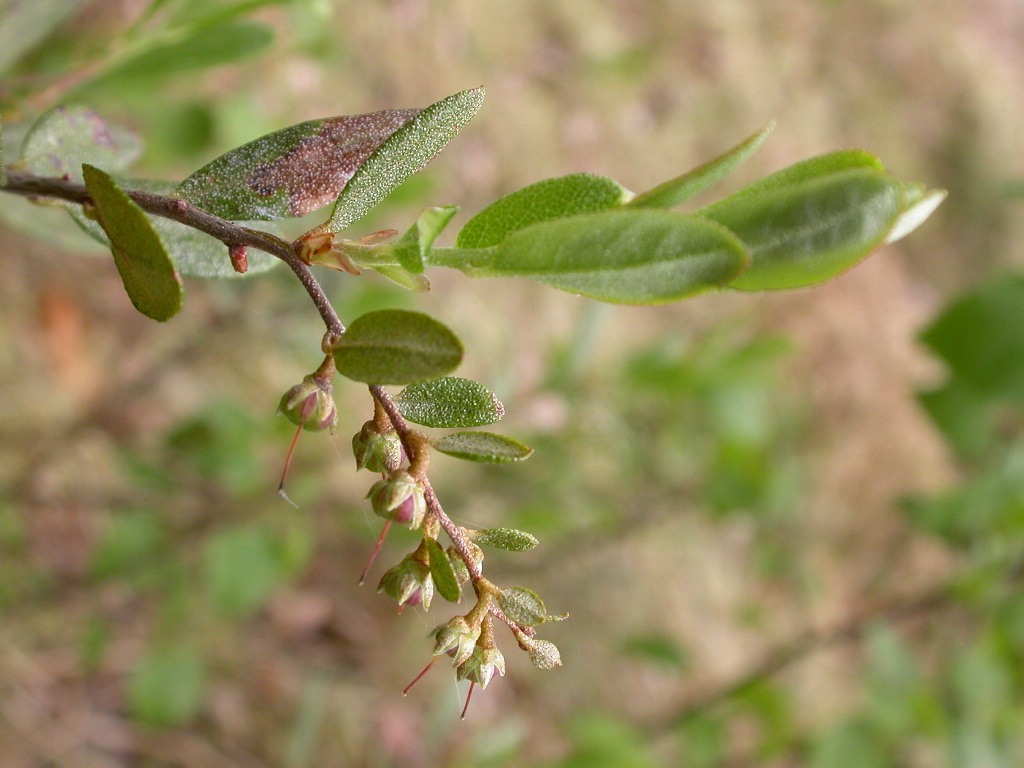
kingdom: Plantae
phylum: Tracheophyta
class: Magnoliopsida
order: Ericales
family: Ericaceae
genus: Chamaedaphne
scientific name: Chamaedaphne calyculata
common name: Leatherleaf
